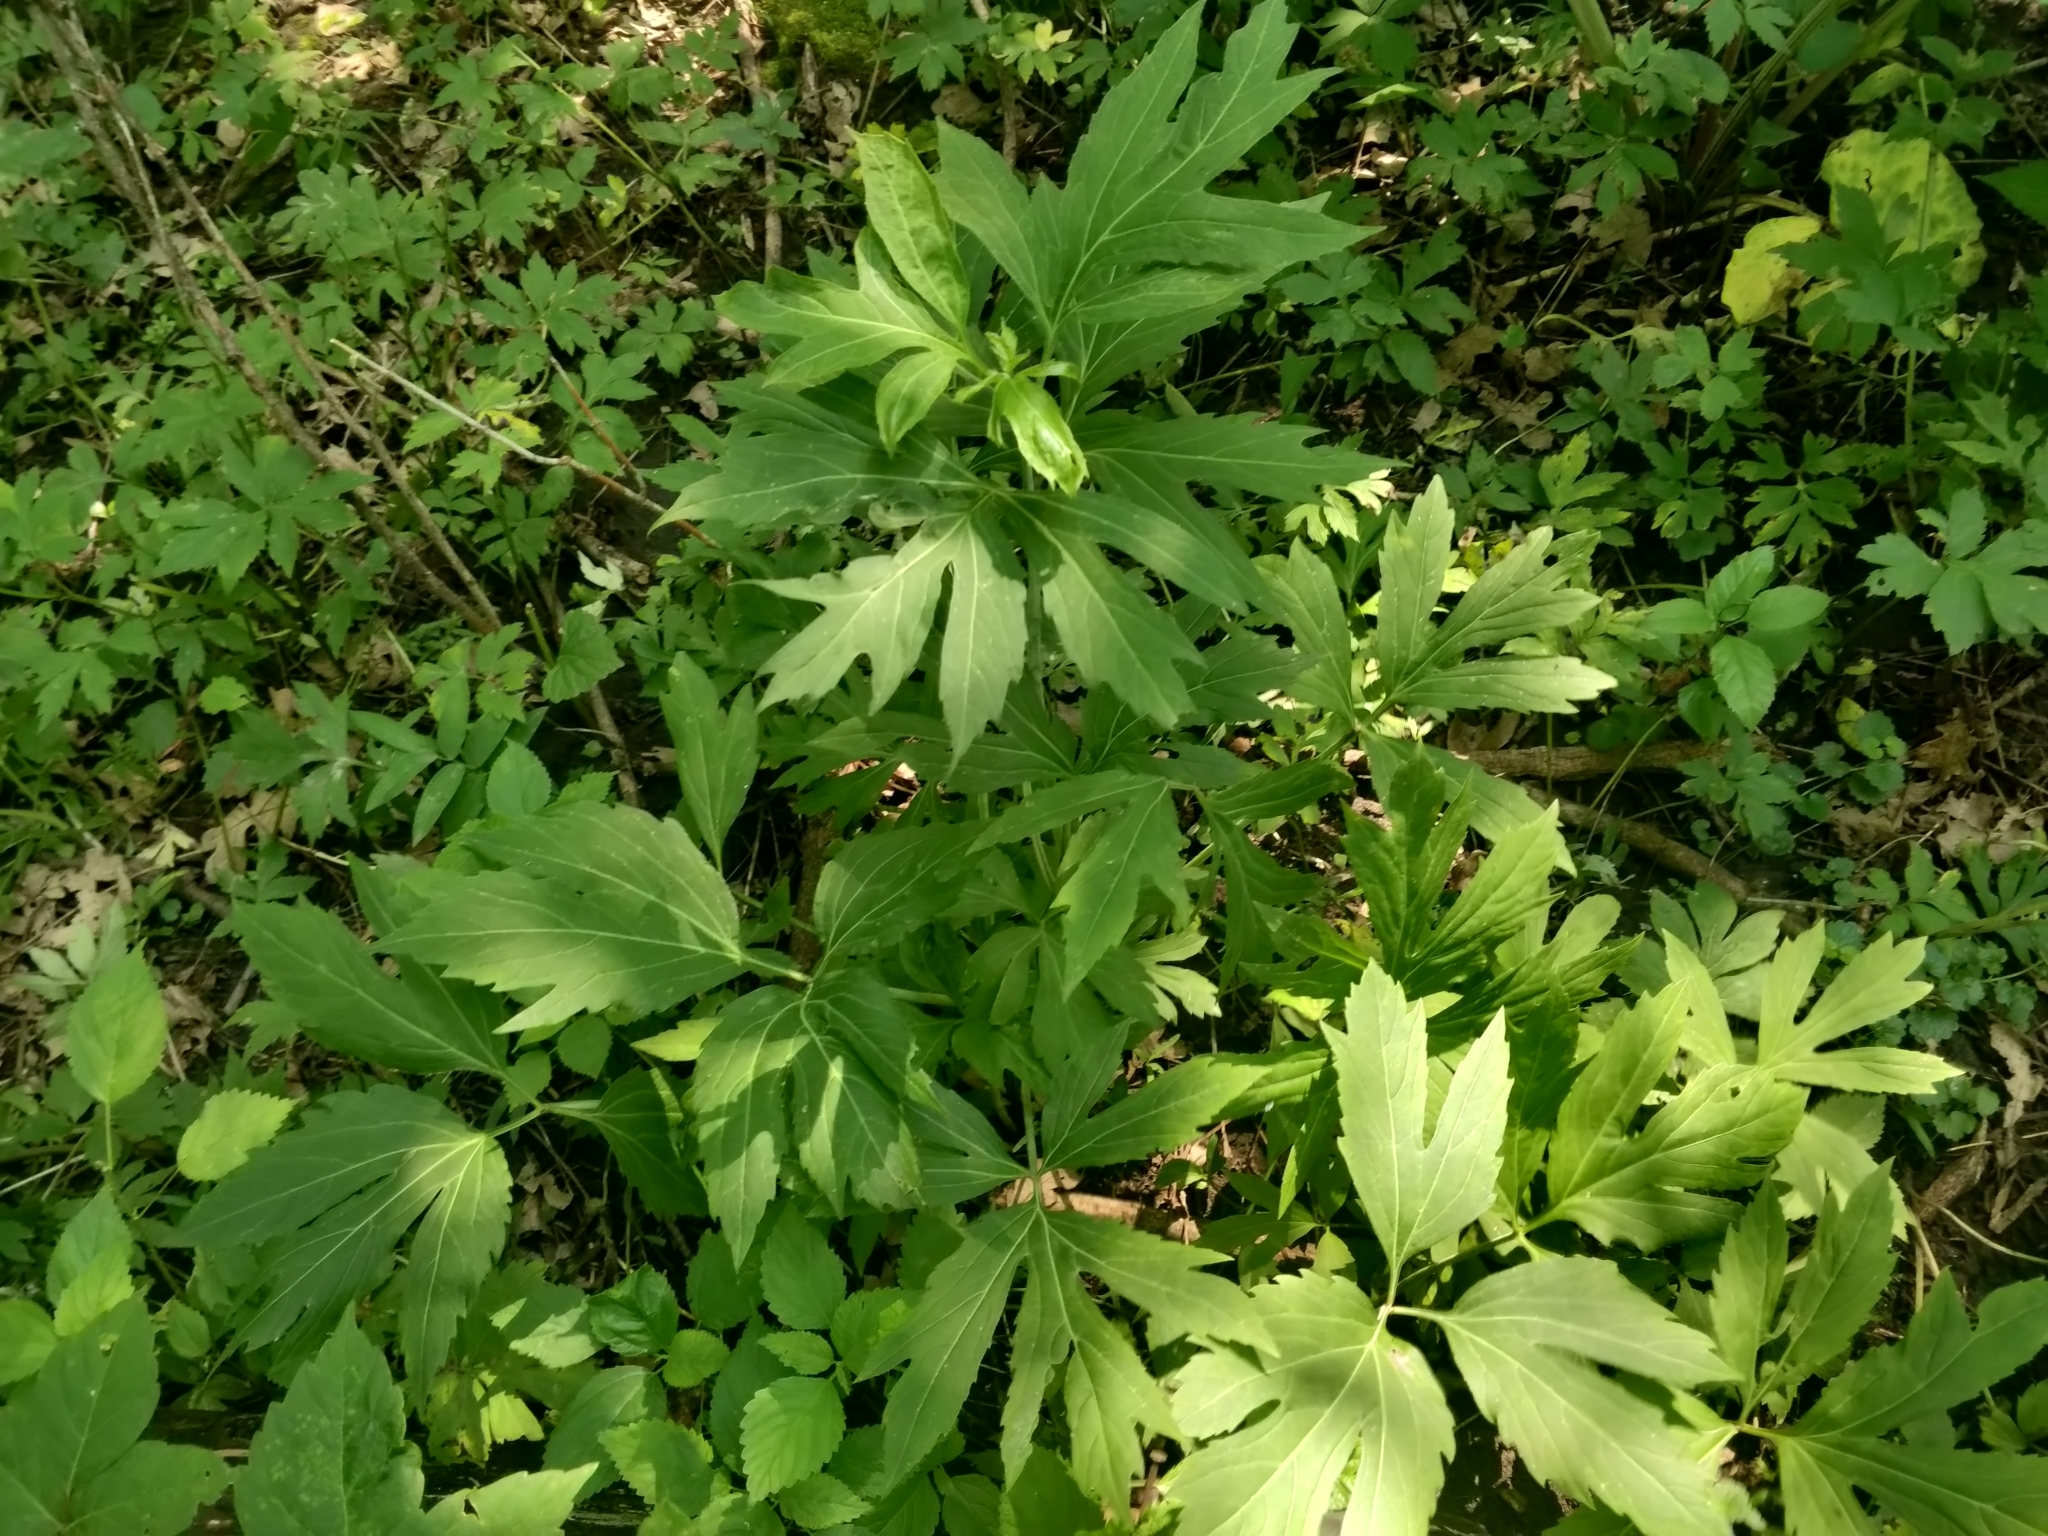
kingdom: Plantae
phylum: Tracheophyta
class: Magnoliopsida
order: Asterales
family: Asteraceae
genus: Rudbeckia
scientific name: Rudbeckia laciniata
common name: Coneflower
